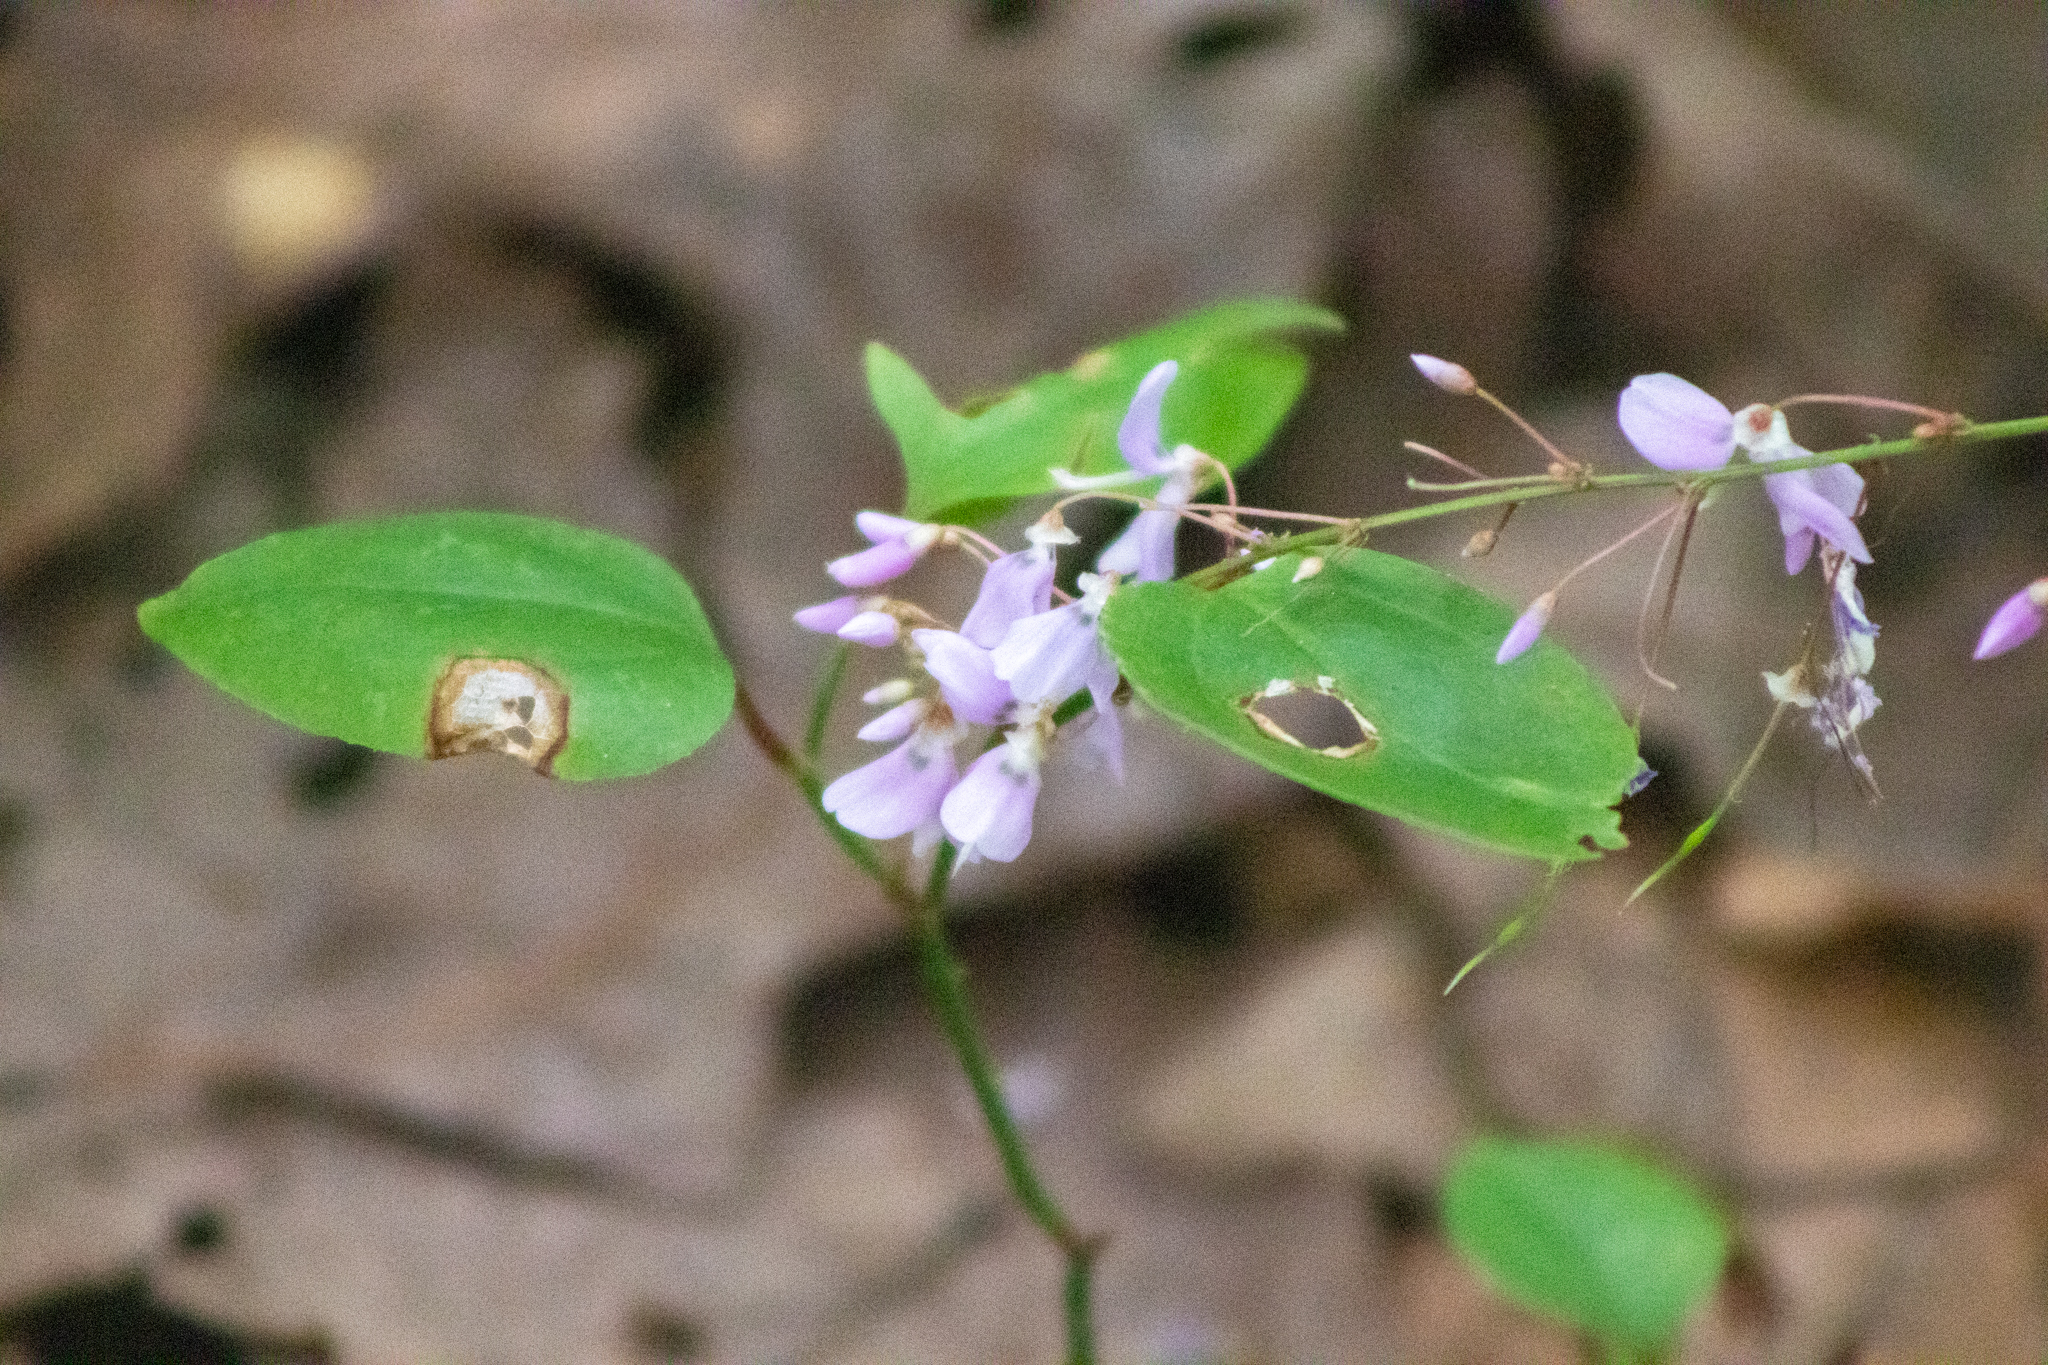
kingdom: Plantae
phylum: Tracheophyta
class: Magnoliopsida
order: Fabales
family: Fabaceae
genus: Hylodesmum
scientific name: Hylodesmum nudiflorum
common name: Bare-stemmed tick-trefoil
